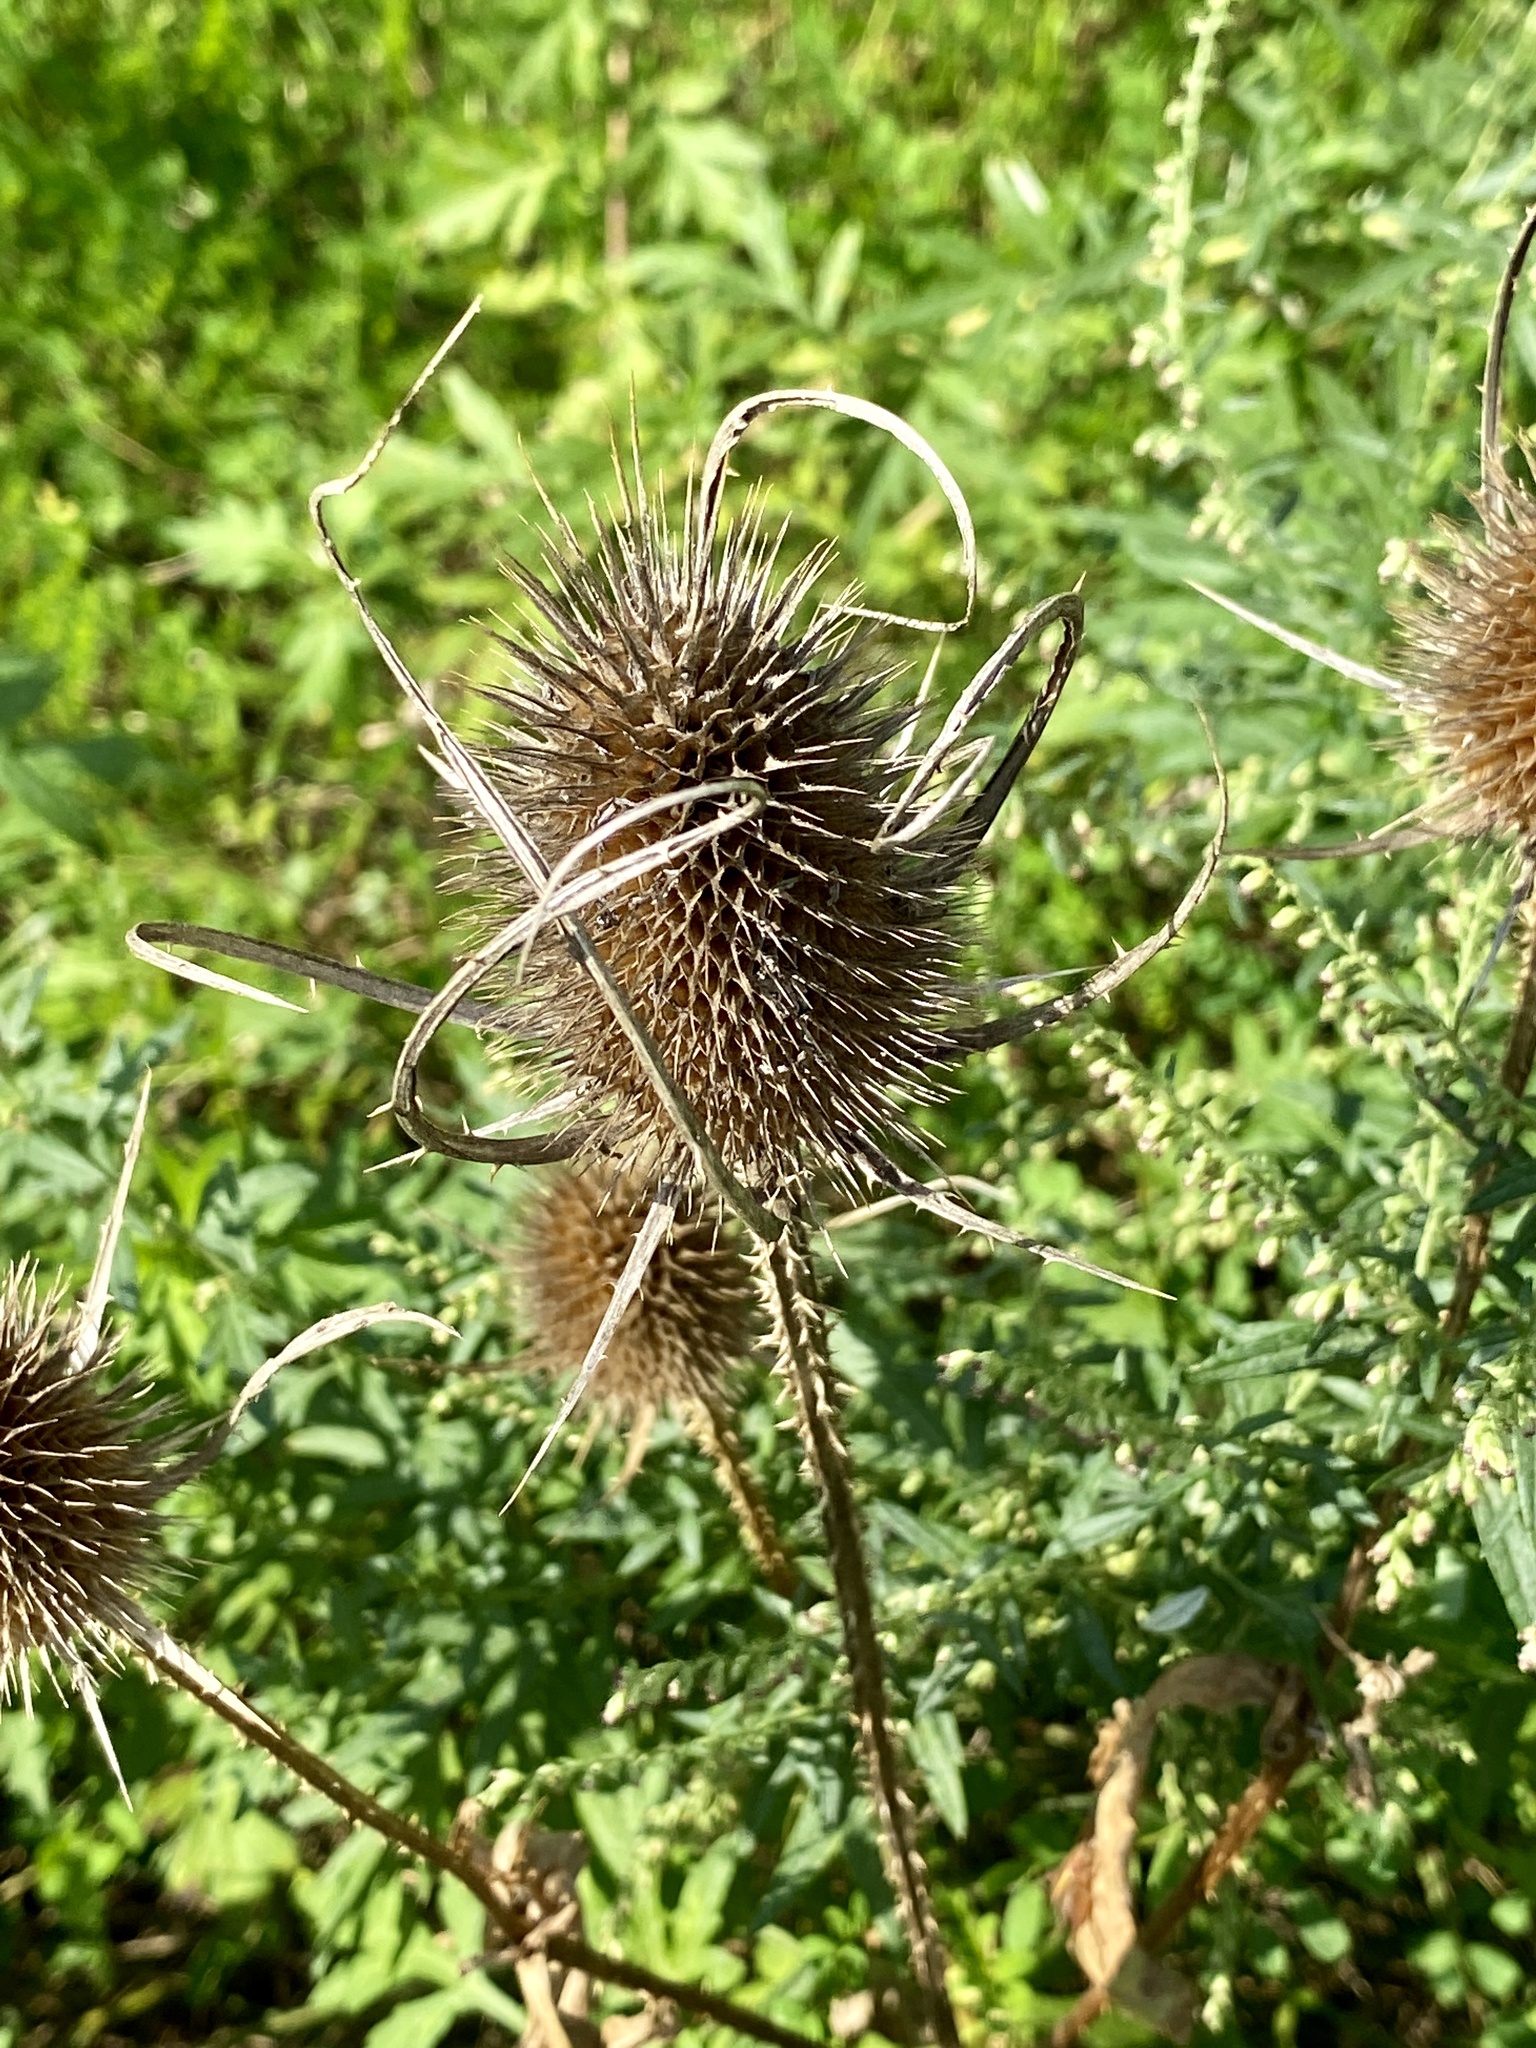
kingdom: Plantae
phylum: Tracheophyta
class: Magnoliopsida
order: Dipsacales
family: Caprifoliaceae
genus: Dipsacus
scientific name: Dipsacus fullonum
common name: Teasel
